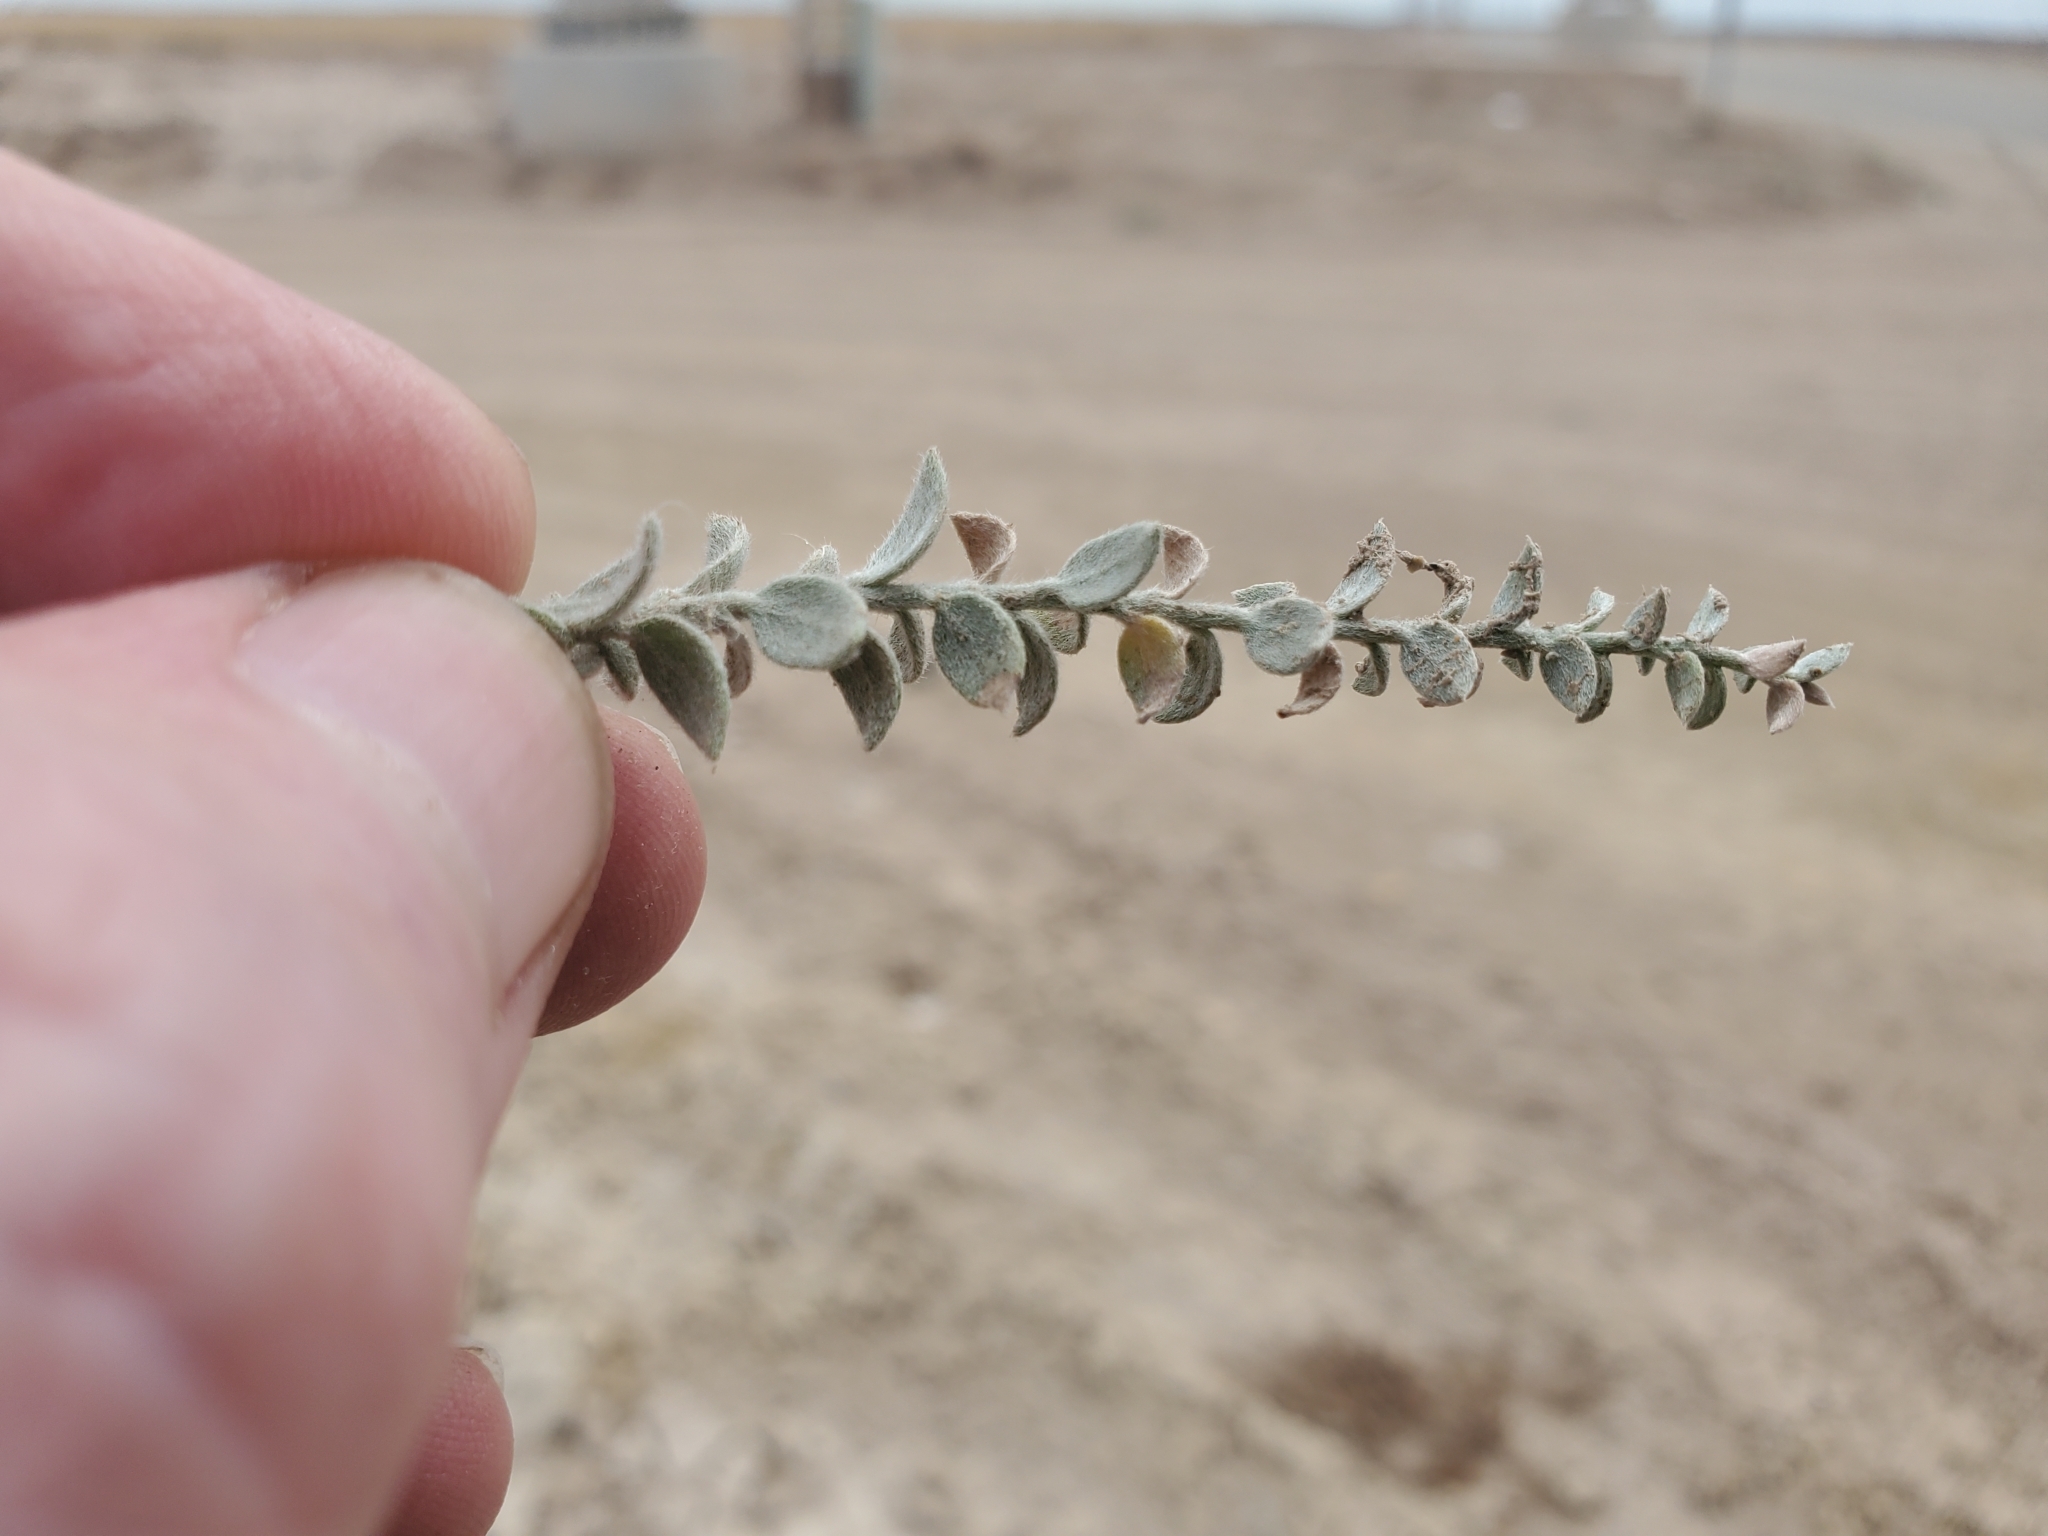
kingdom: Plantae
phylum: Tracheophyta
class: Magnoliopsida
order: Solanales
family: Convolvulaceae
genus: Cressa
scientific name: Cressa truxillensis
